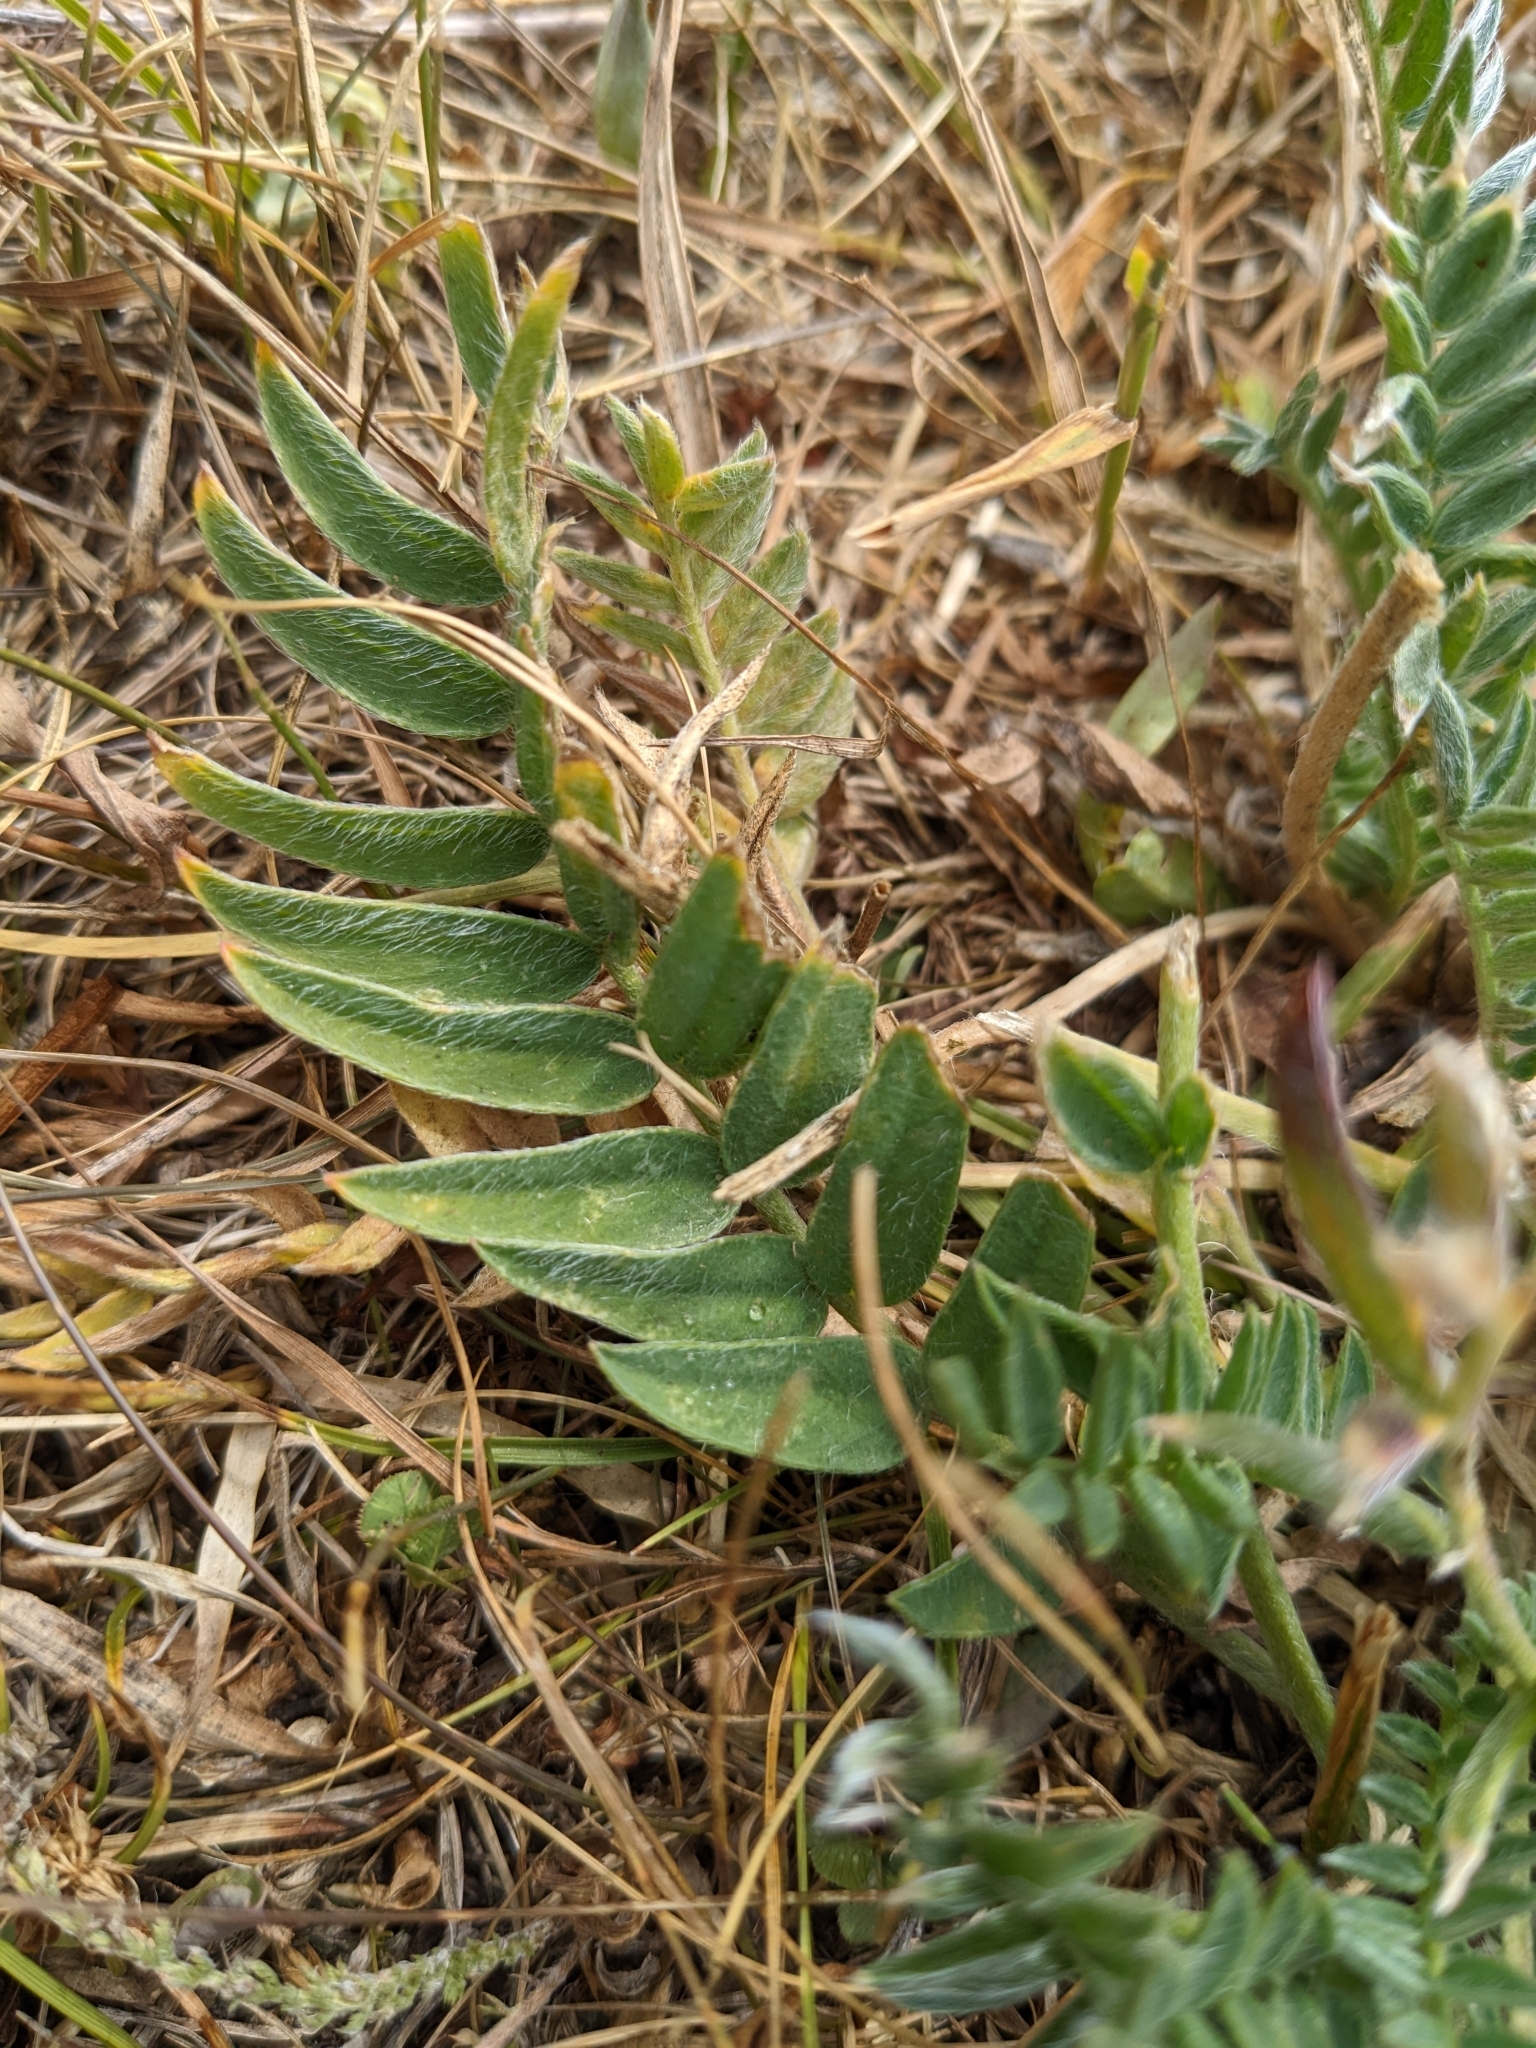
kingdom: Plantae
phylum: Tracheophyta
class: Magnoliopsida
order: Fabales
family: Fabaceae
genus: Oxytropis
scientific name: Oxytropis campestris
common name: Field locoweed
